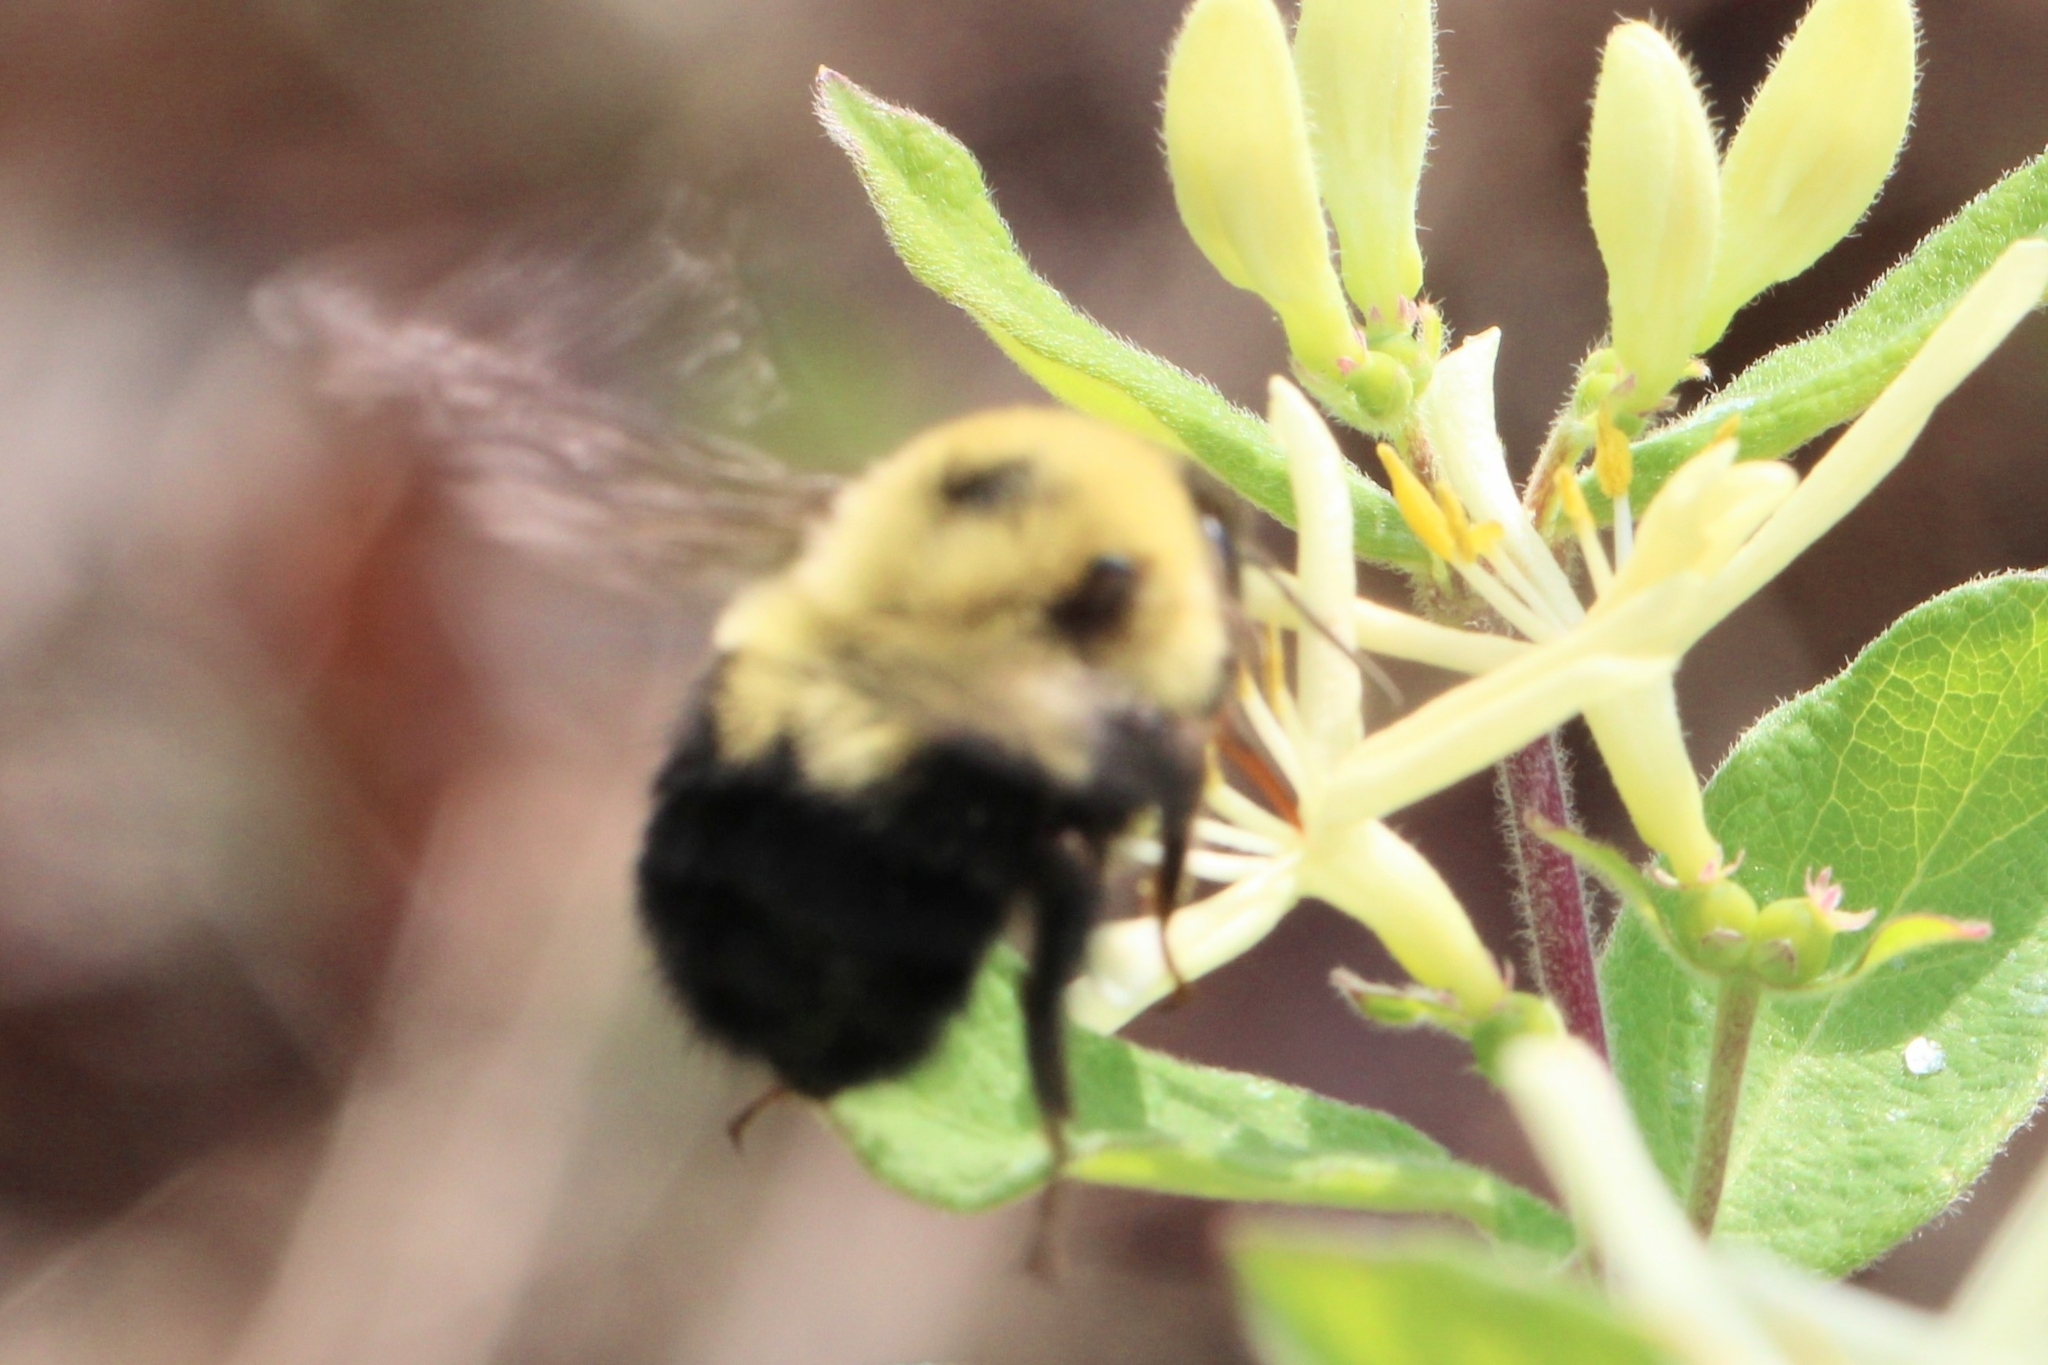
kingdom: Animalia
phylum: Arthropoda
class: Insecta
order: Hymenoptera
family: Apidae
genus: Bombus
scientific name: Bombus bimaculatus
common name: Two-spotted bumble bee
